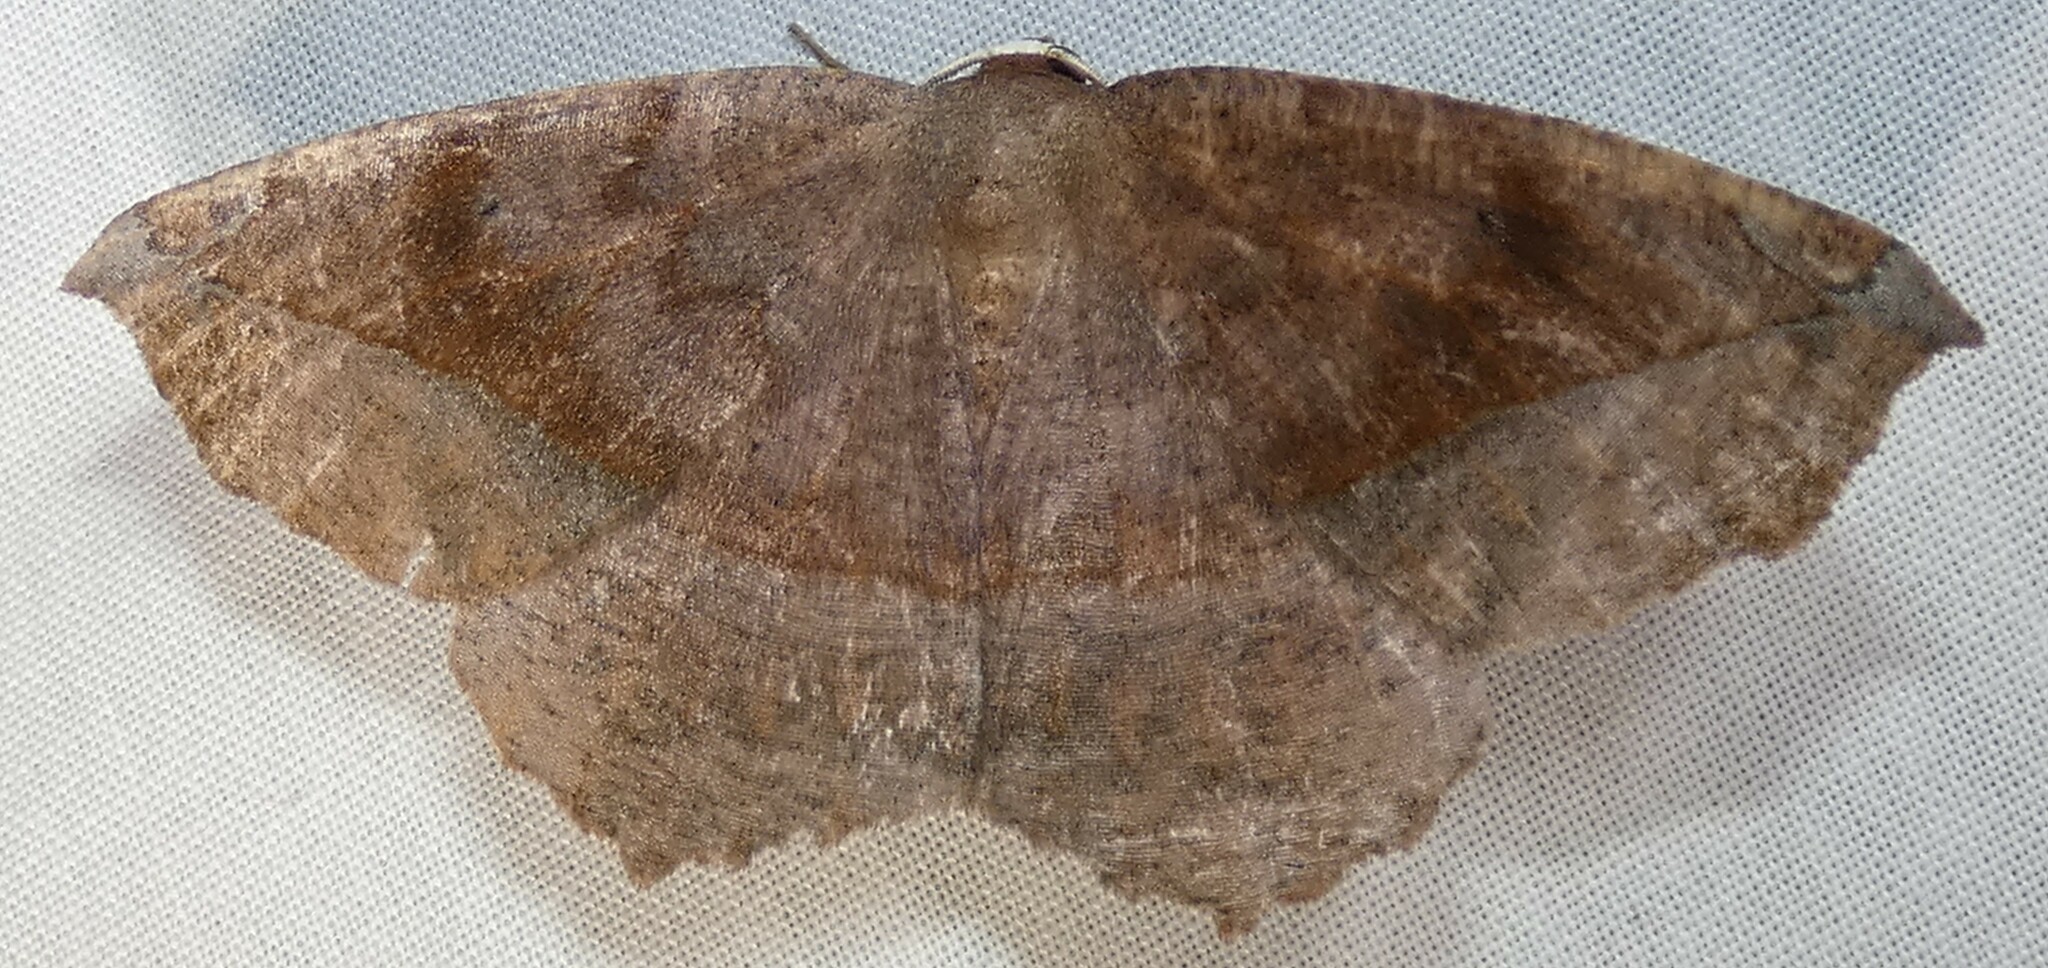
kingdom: Animalia
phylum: Arthropoda
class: Insecta
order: Lepidoptera
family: Geometridae
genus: Eutrapela
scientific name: Eutrapela clemataria
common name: Curved-toothed geometer
